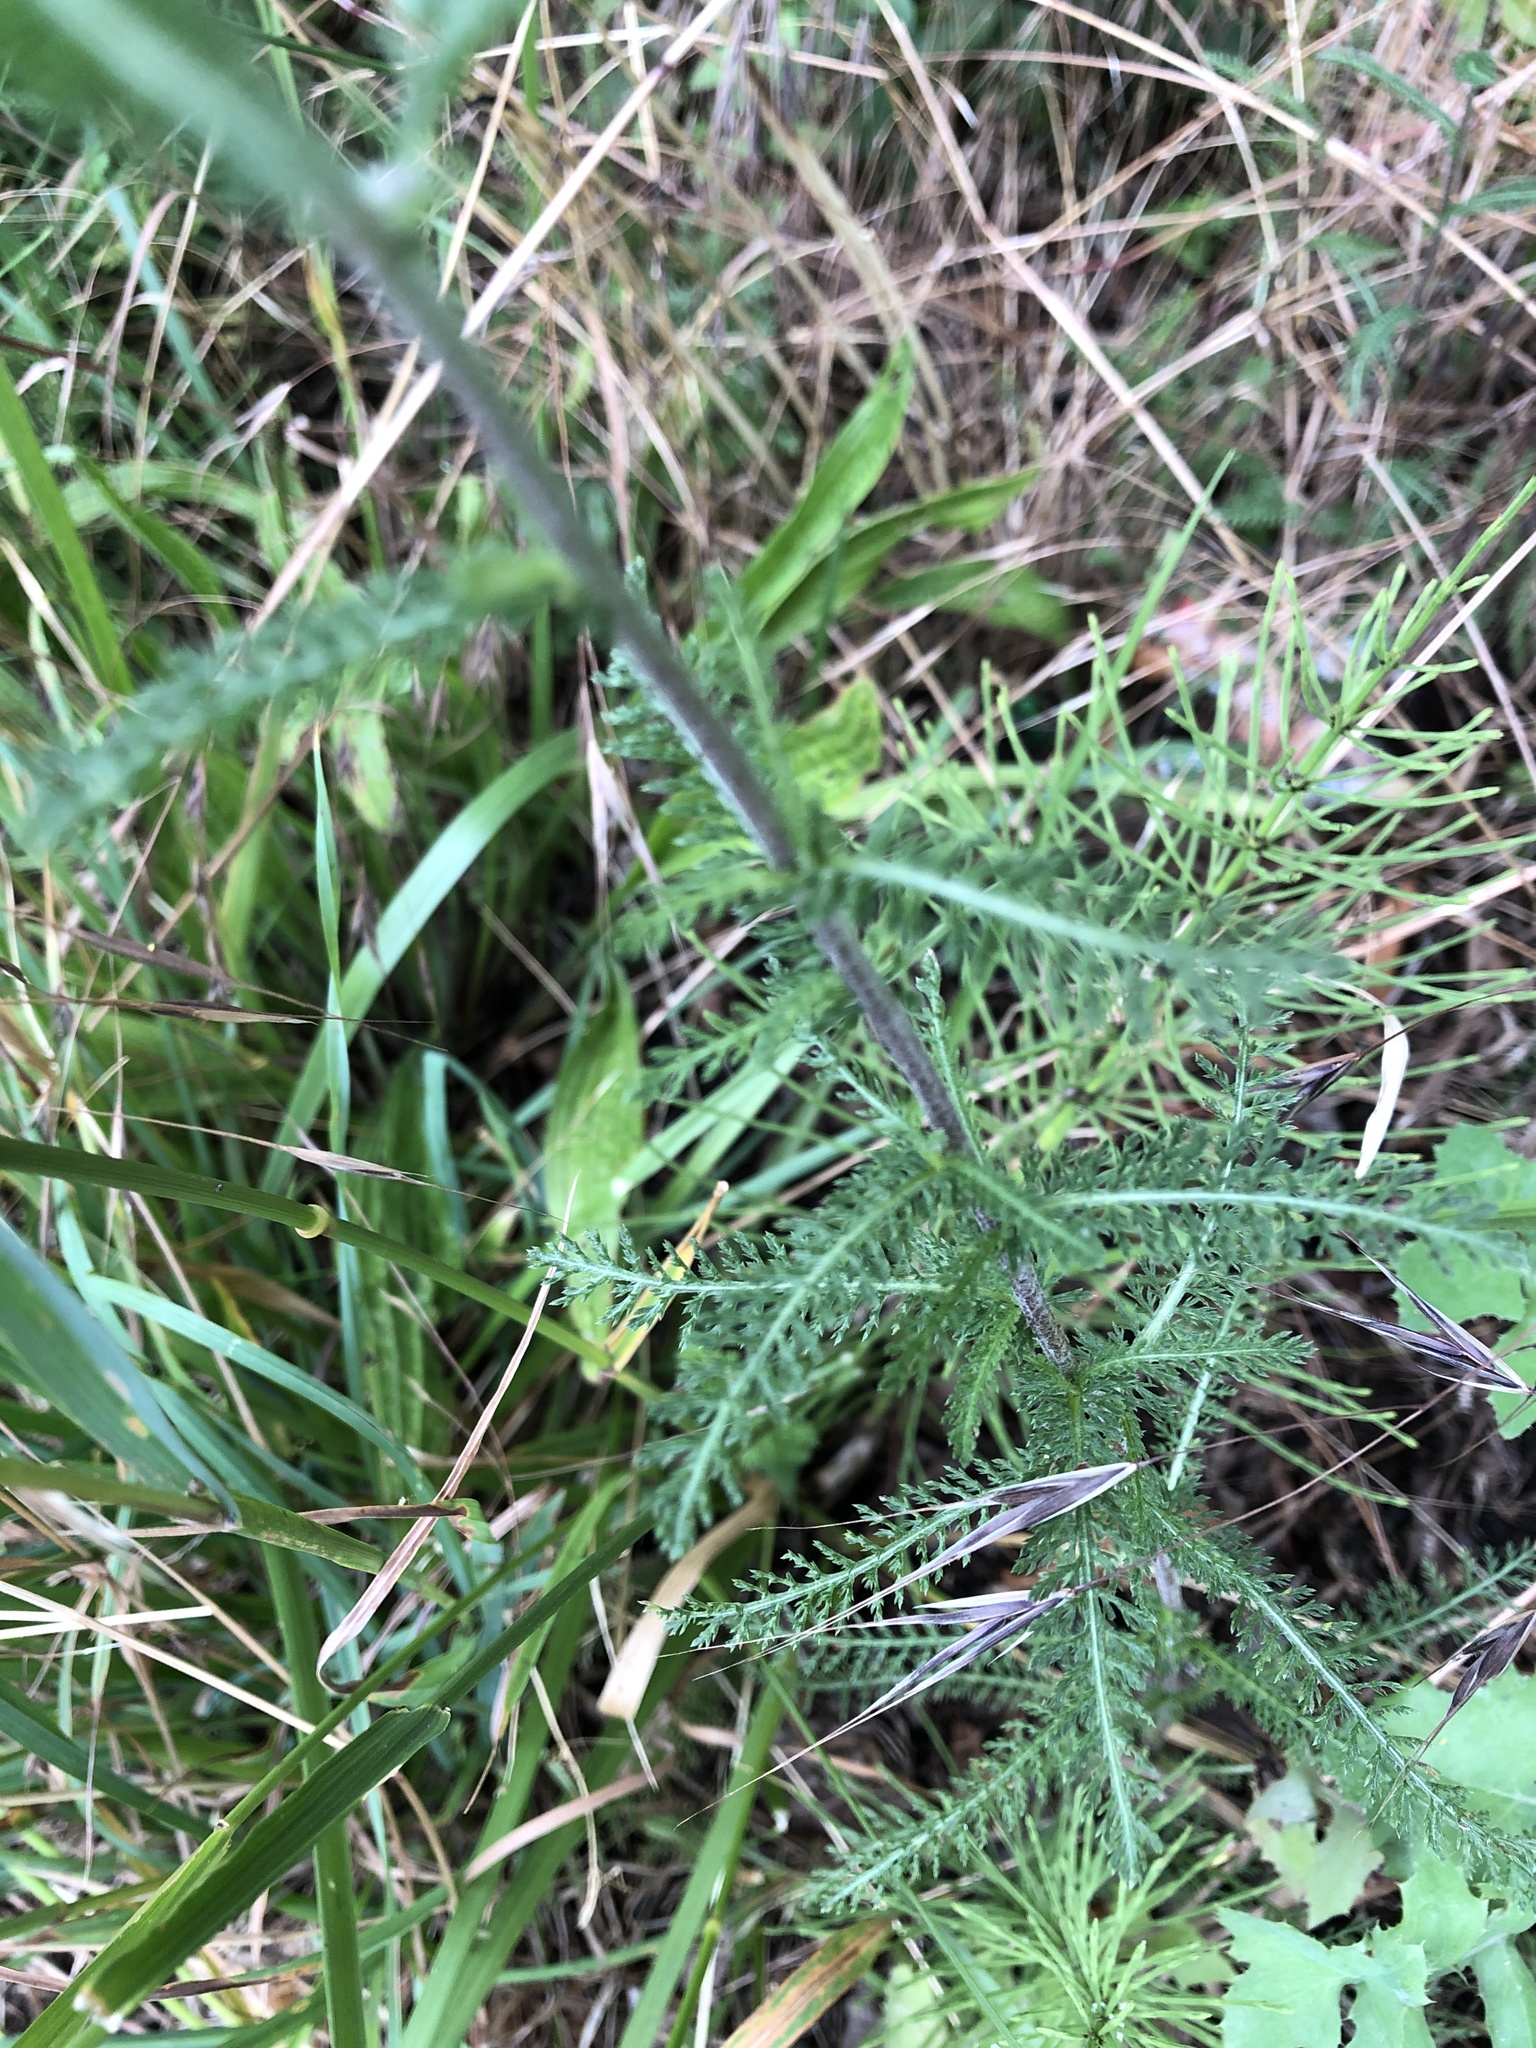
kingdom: Plantae
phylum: Tracheophyta
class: Magnoliopsida
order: Asterales
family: Asteraceae
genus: Achillea
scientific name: Achillea millefolium
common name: Yarrow
